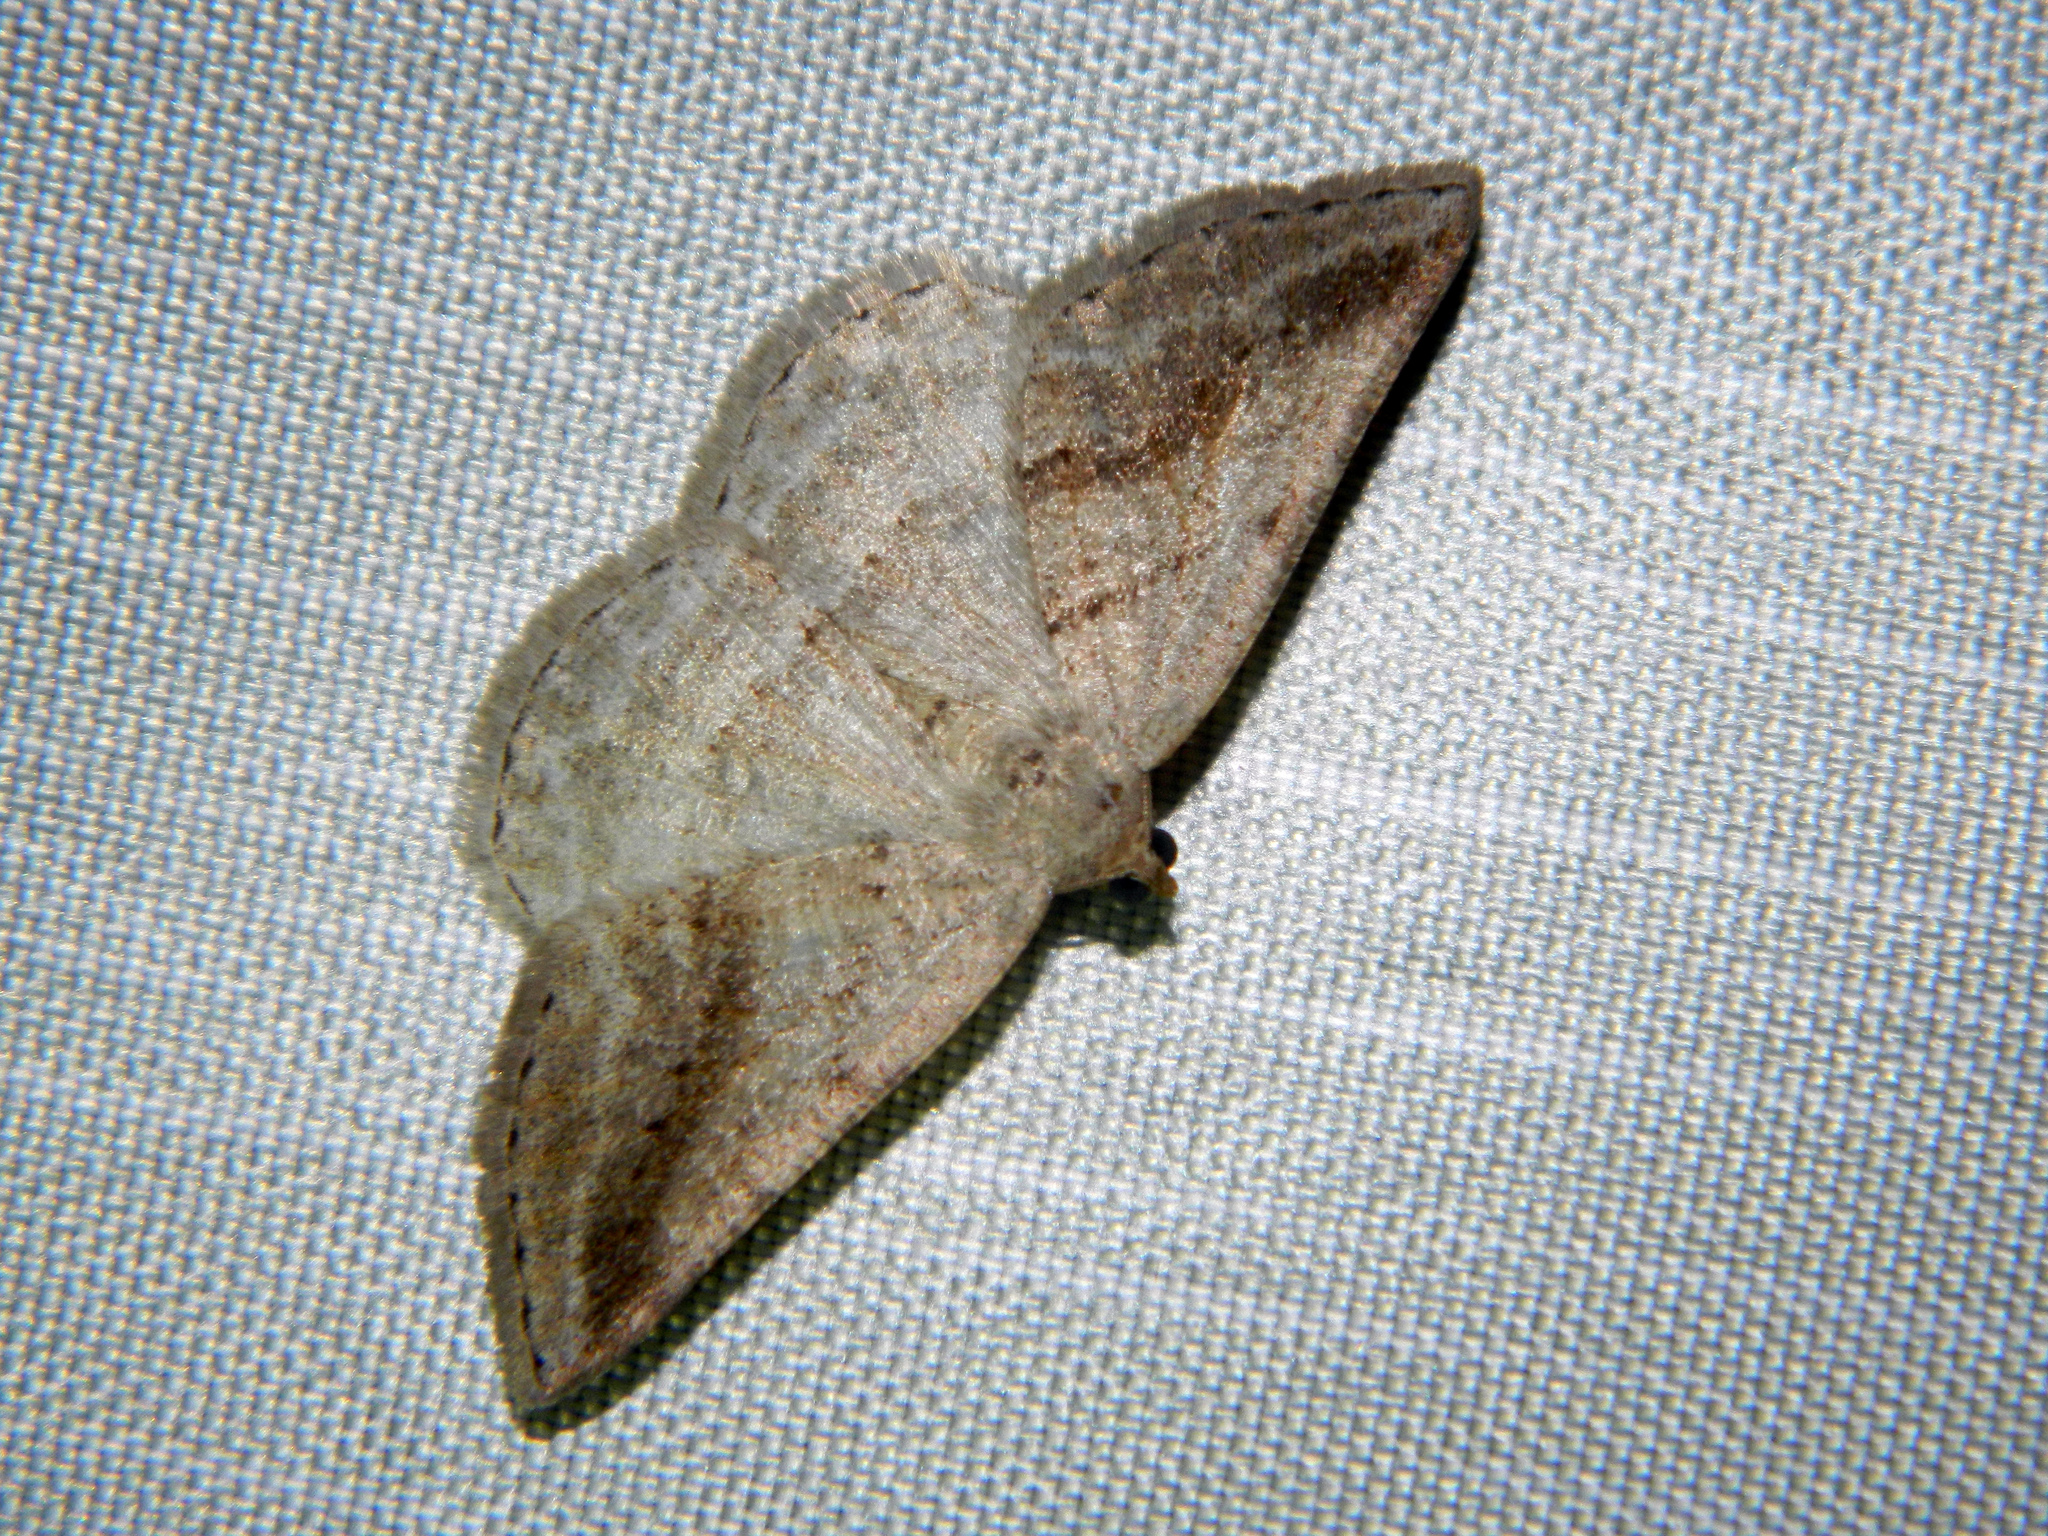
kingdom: Animalia
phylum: Arthropoda
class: Insecta
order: Lepidoptera
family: Geometridae
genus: Tacparia
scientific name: Tacparia detersata
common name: Pale alder moth
